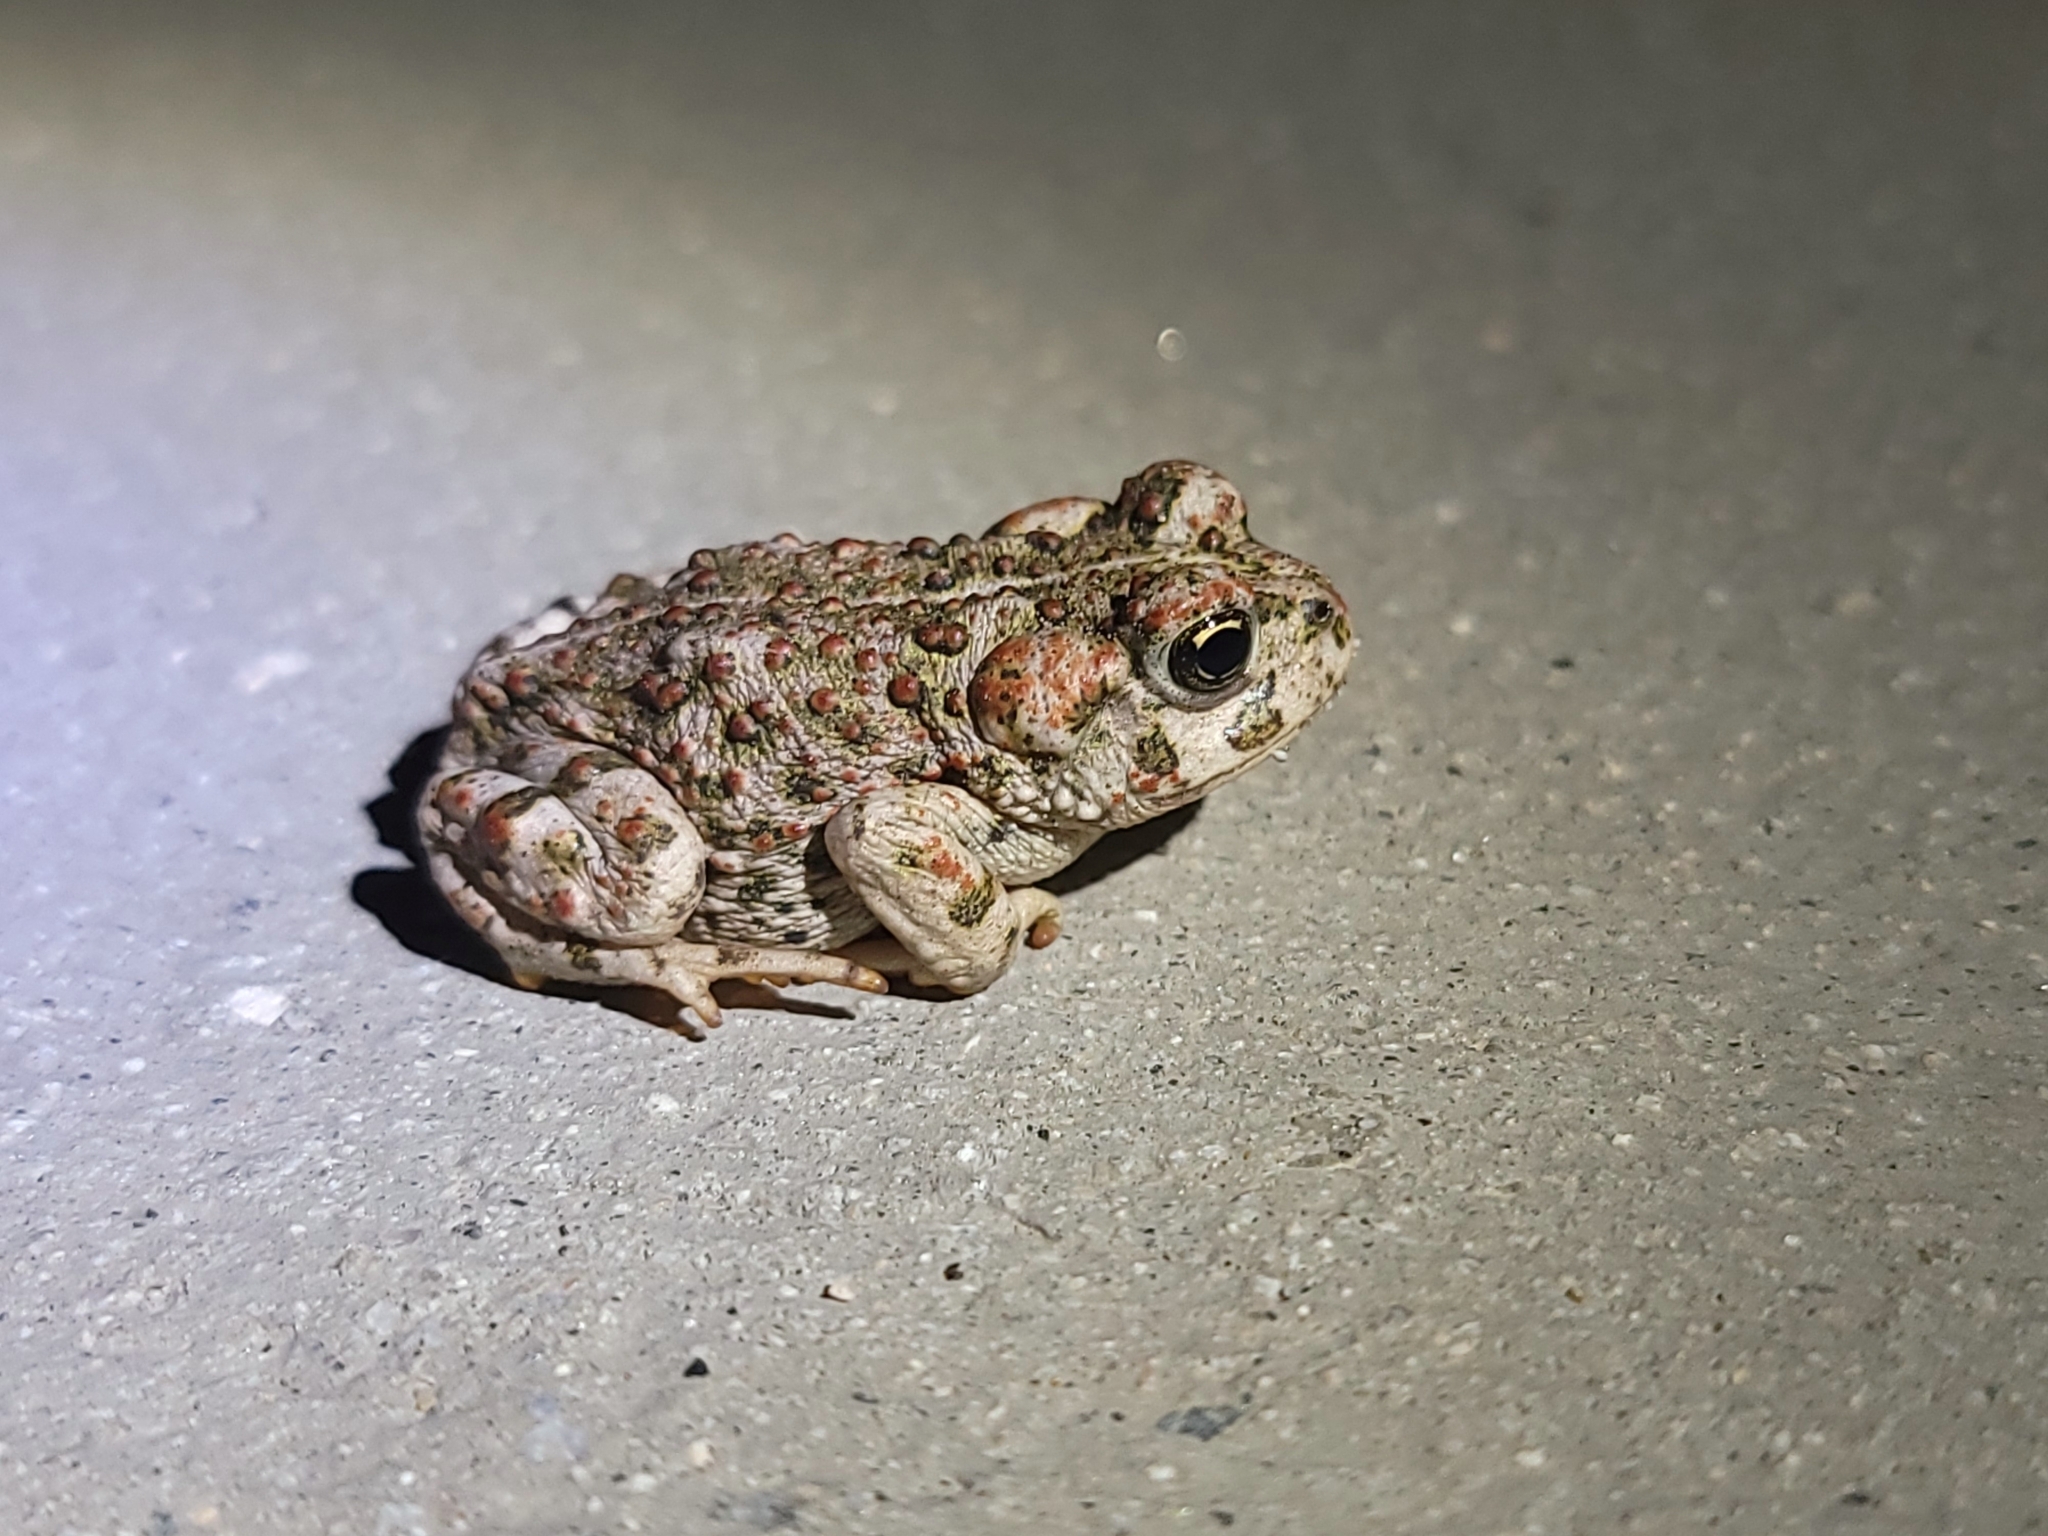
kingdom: Animalia
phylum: Chordata
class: Amphibia
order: Anura
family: Bufonidae
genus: Anaxyrus
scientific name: Anaxyrus boreas
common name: Western toad
